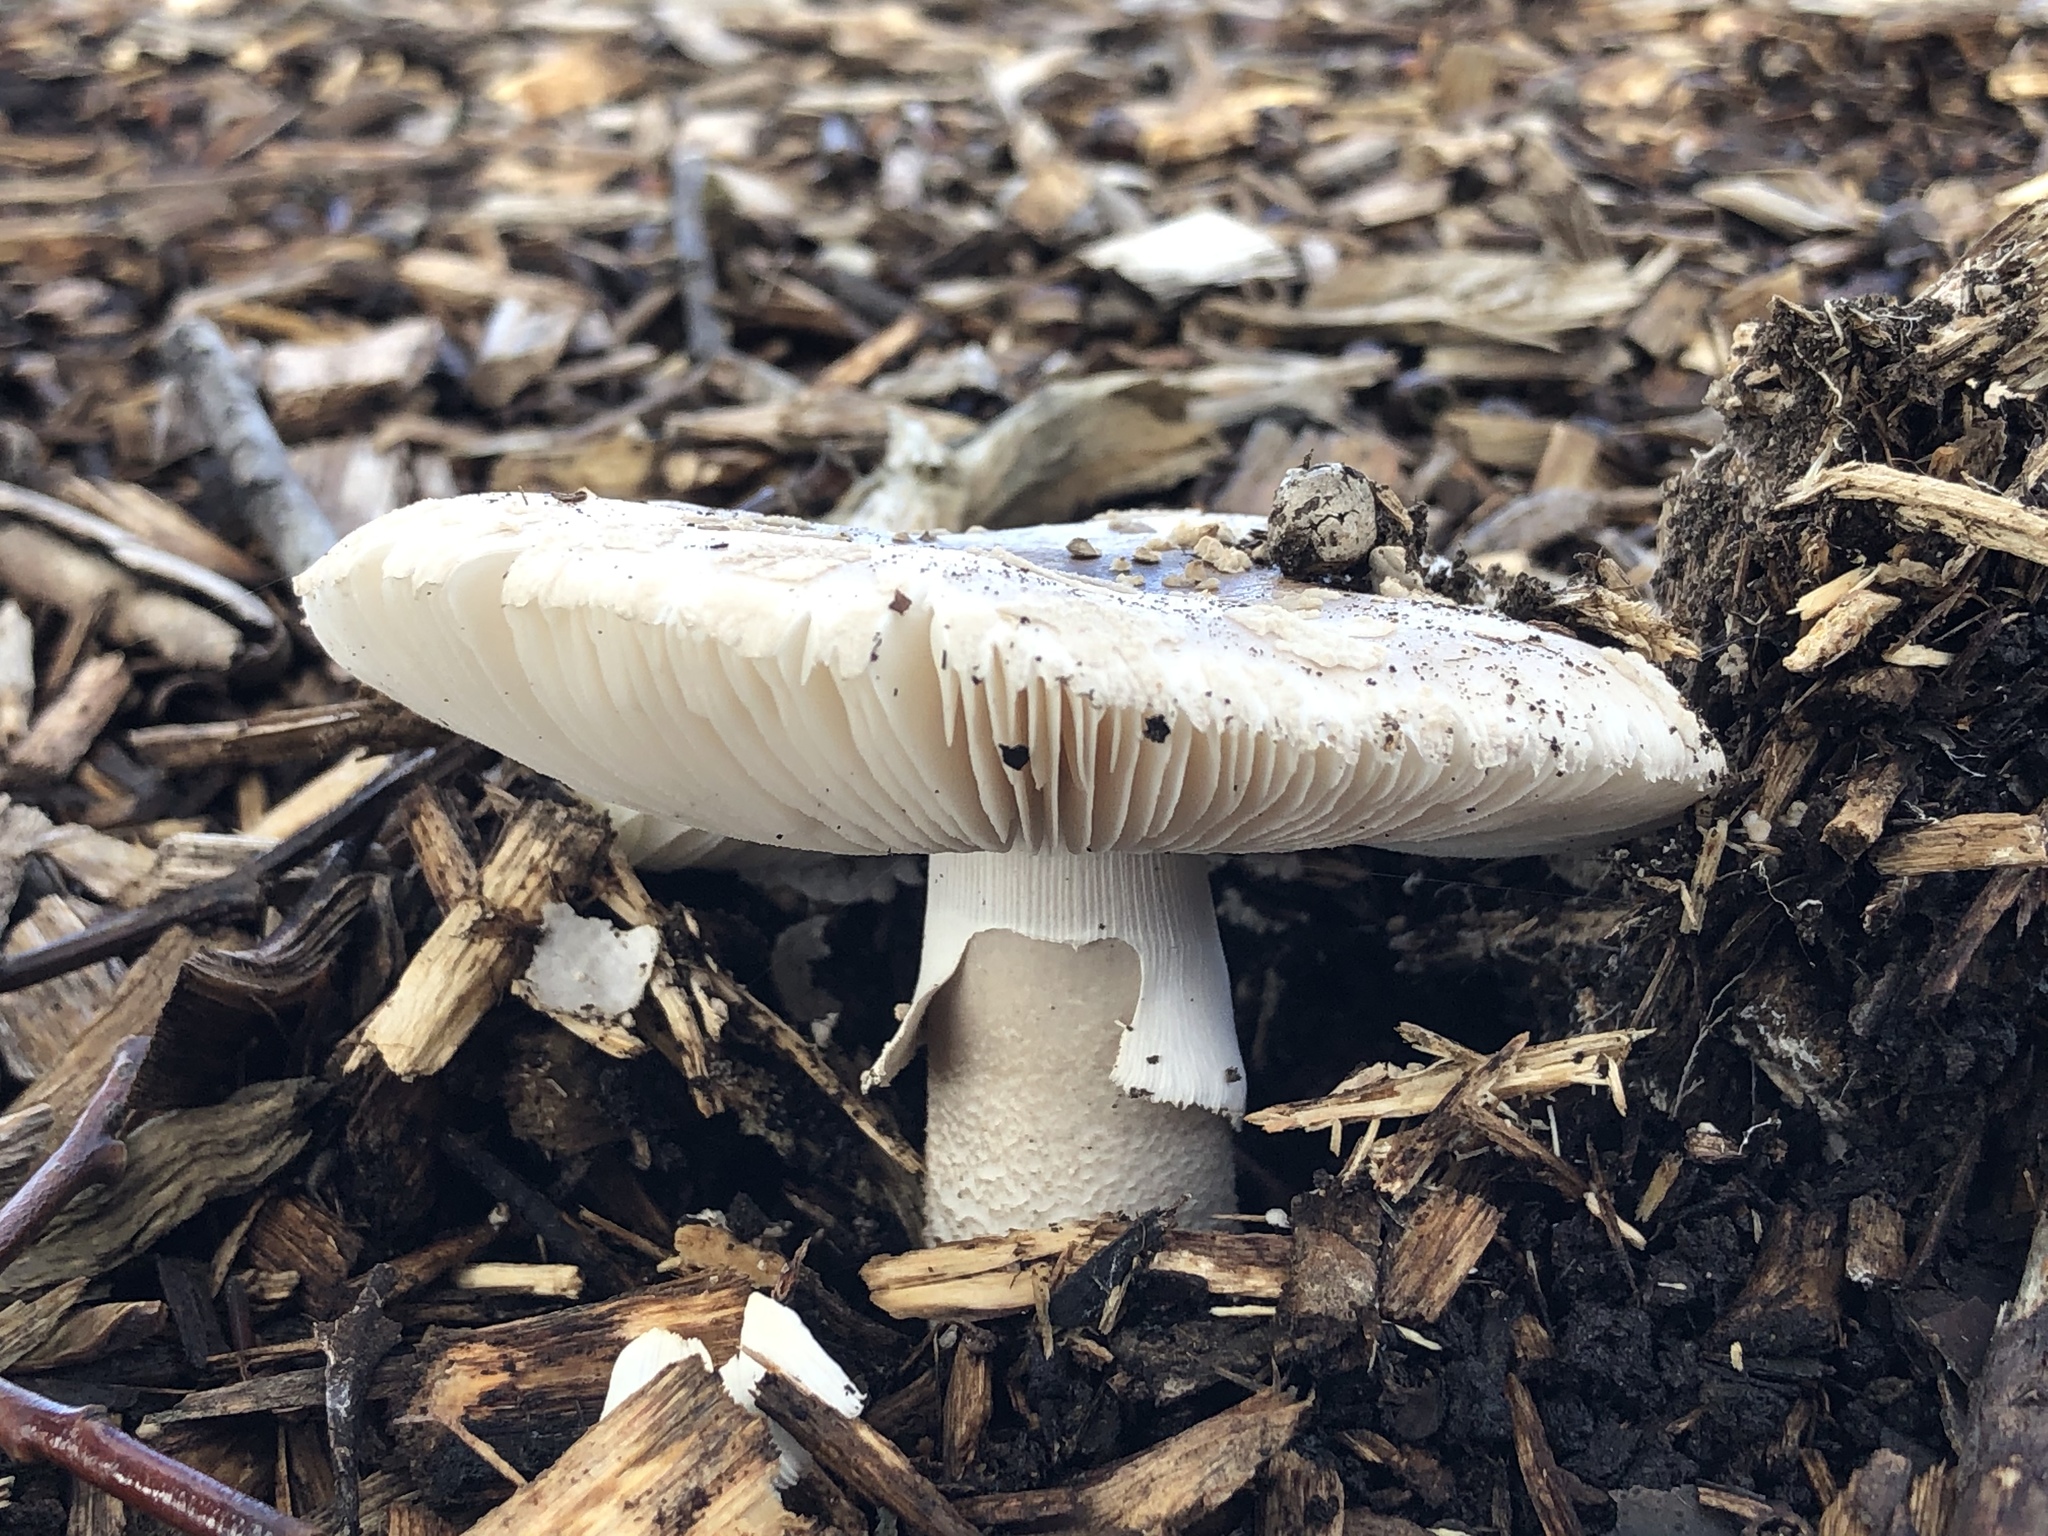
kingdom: Fungi
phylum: Basidiomycota
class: Agaricomycetes
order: Agaricales
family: Amanitaceae
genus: Amanita
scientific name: Amanita nothofagi
